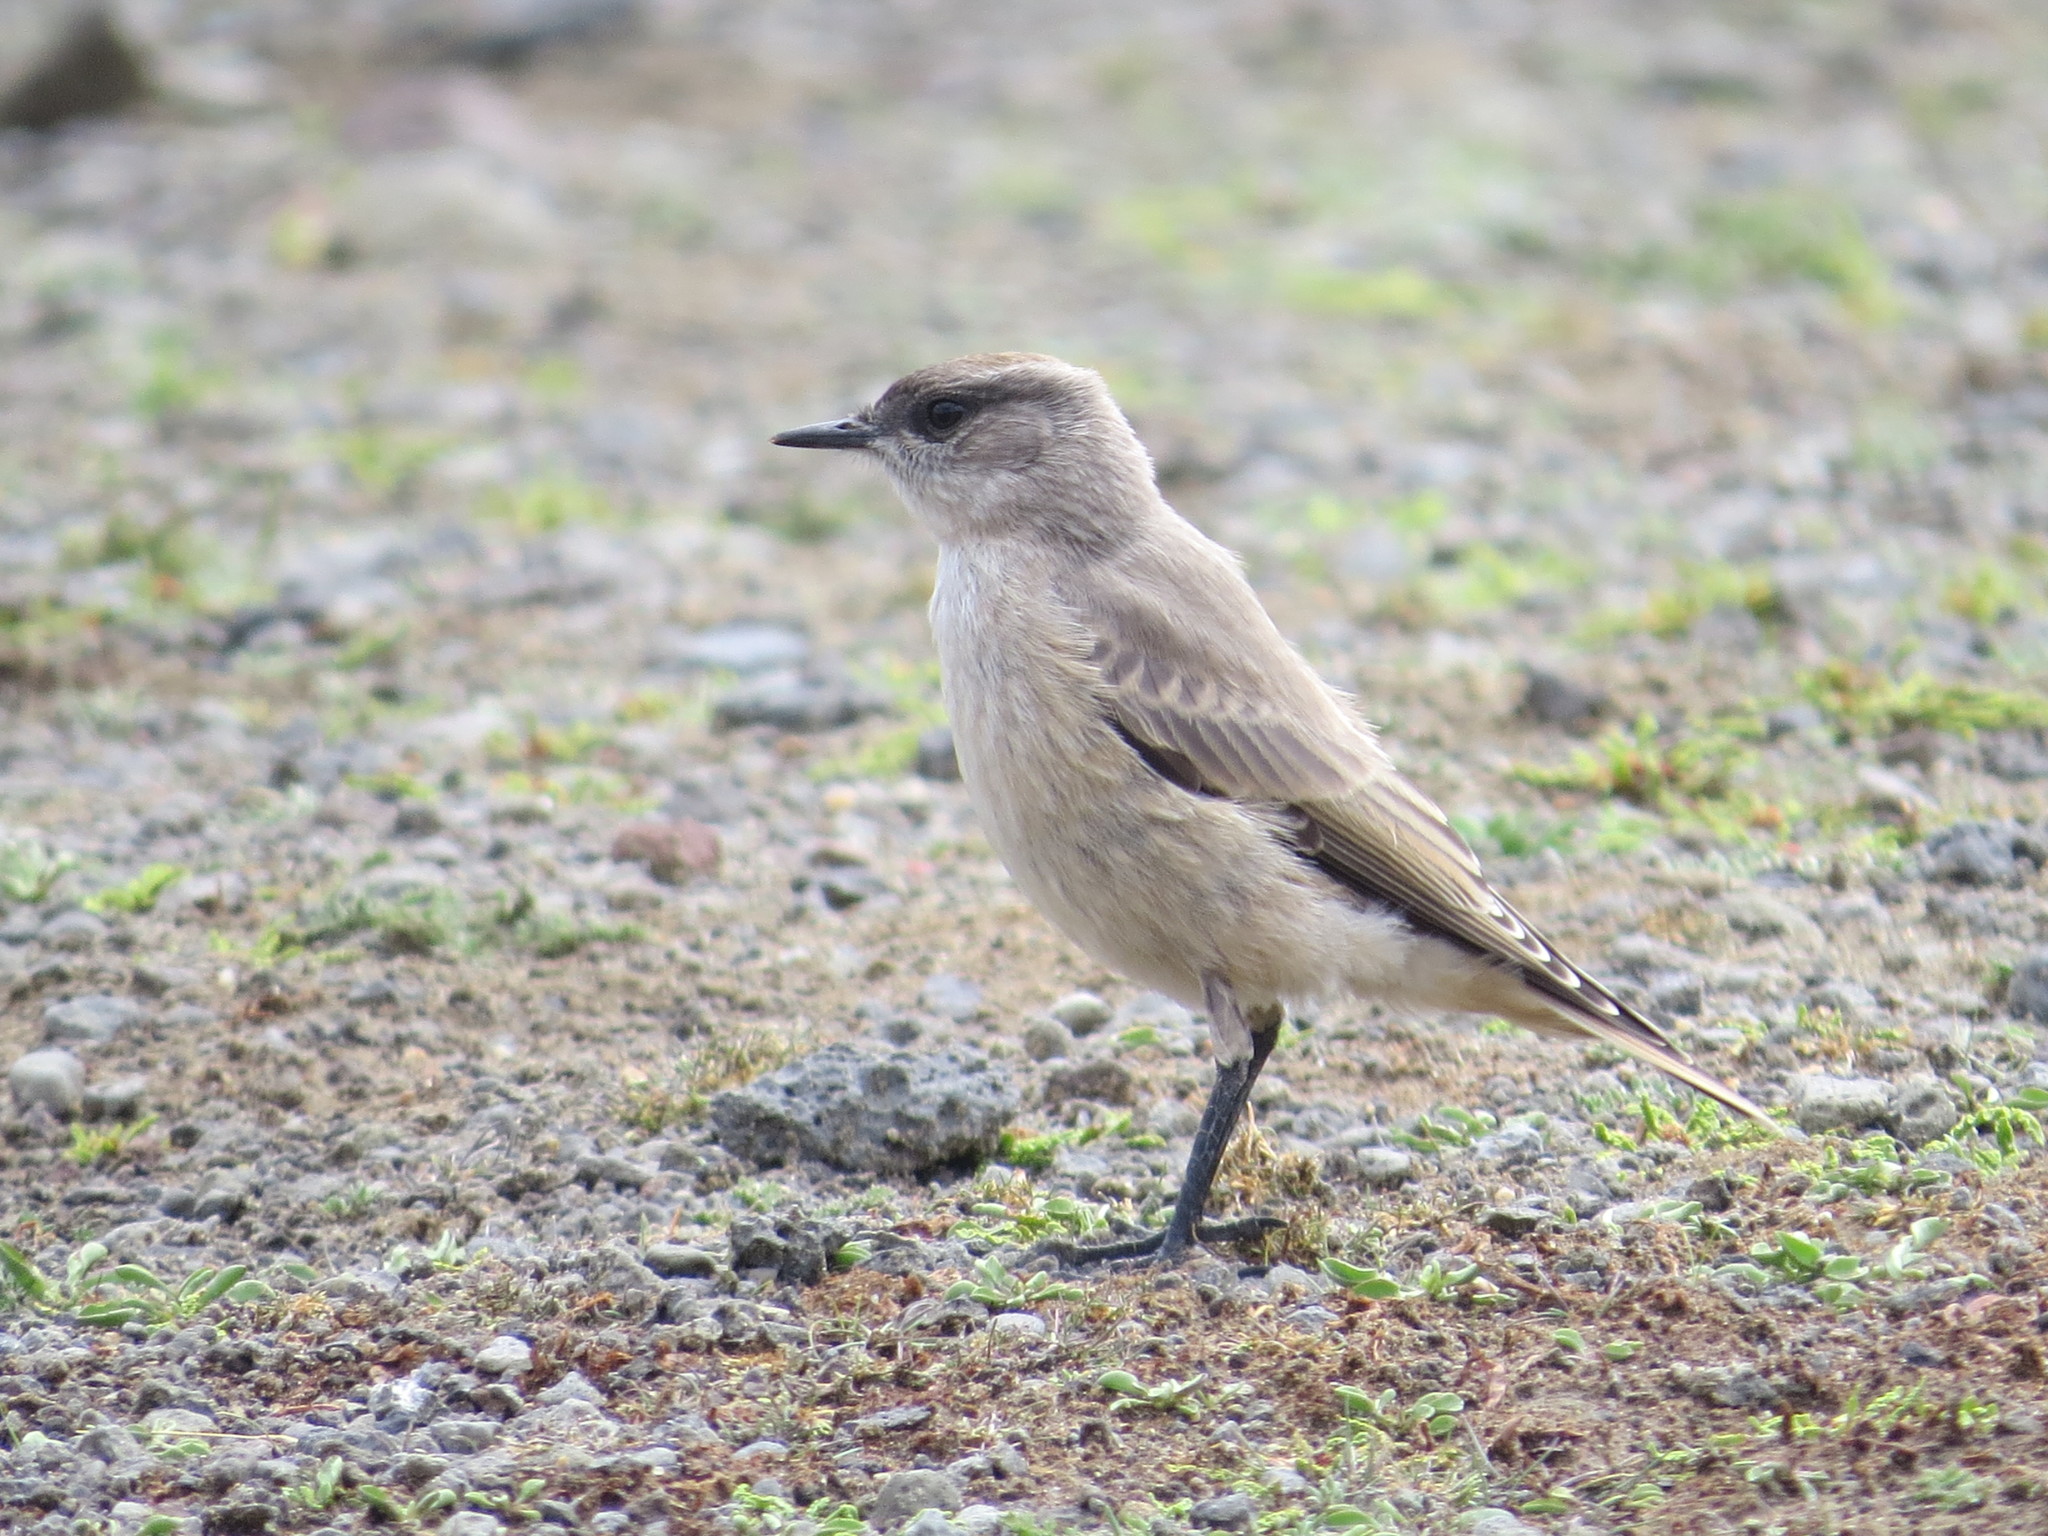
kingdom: Animalia
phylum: Chordata
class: Aves
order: Passeriformes
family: Tyrannidae
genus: Muscisaxicola
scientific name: Muscisaxicola capistratus
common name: Cinnamon-bellied ground tyrant
